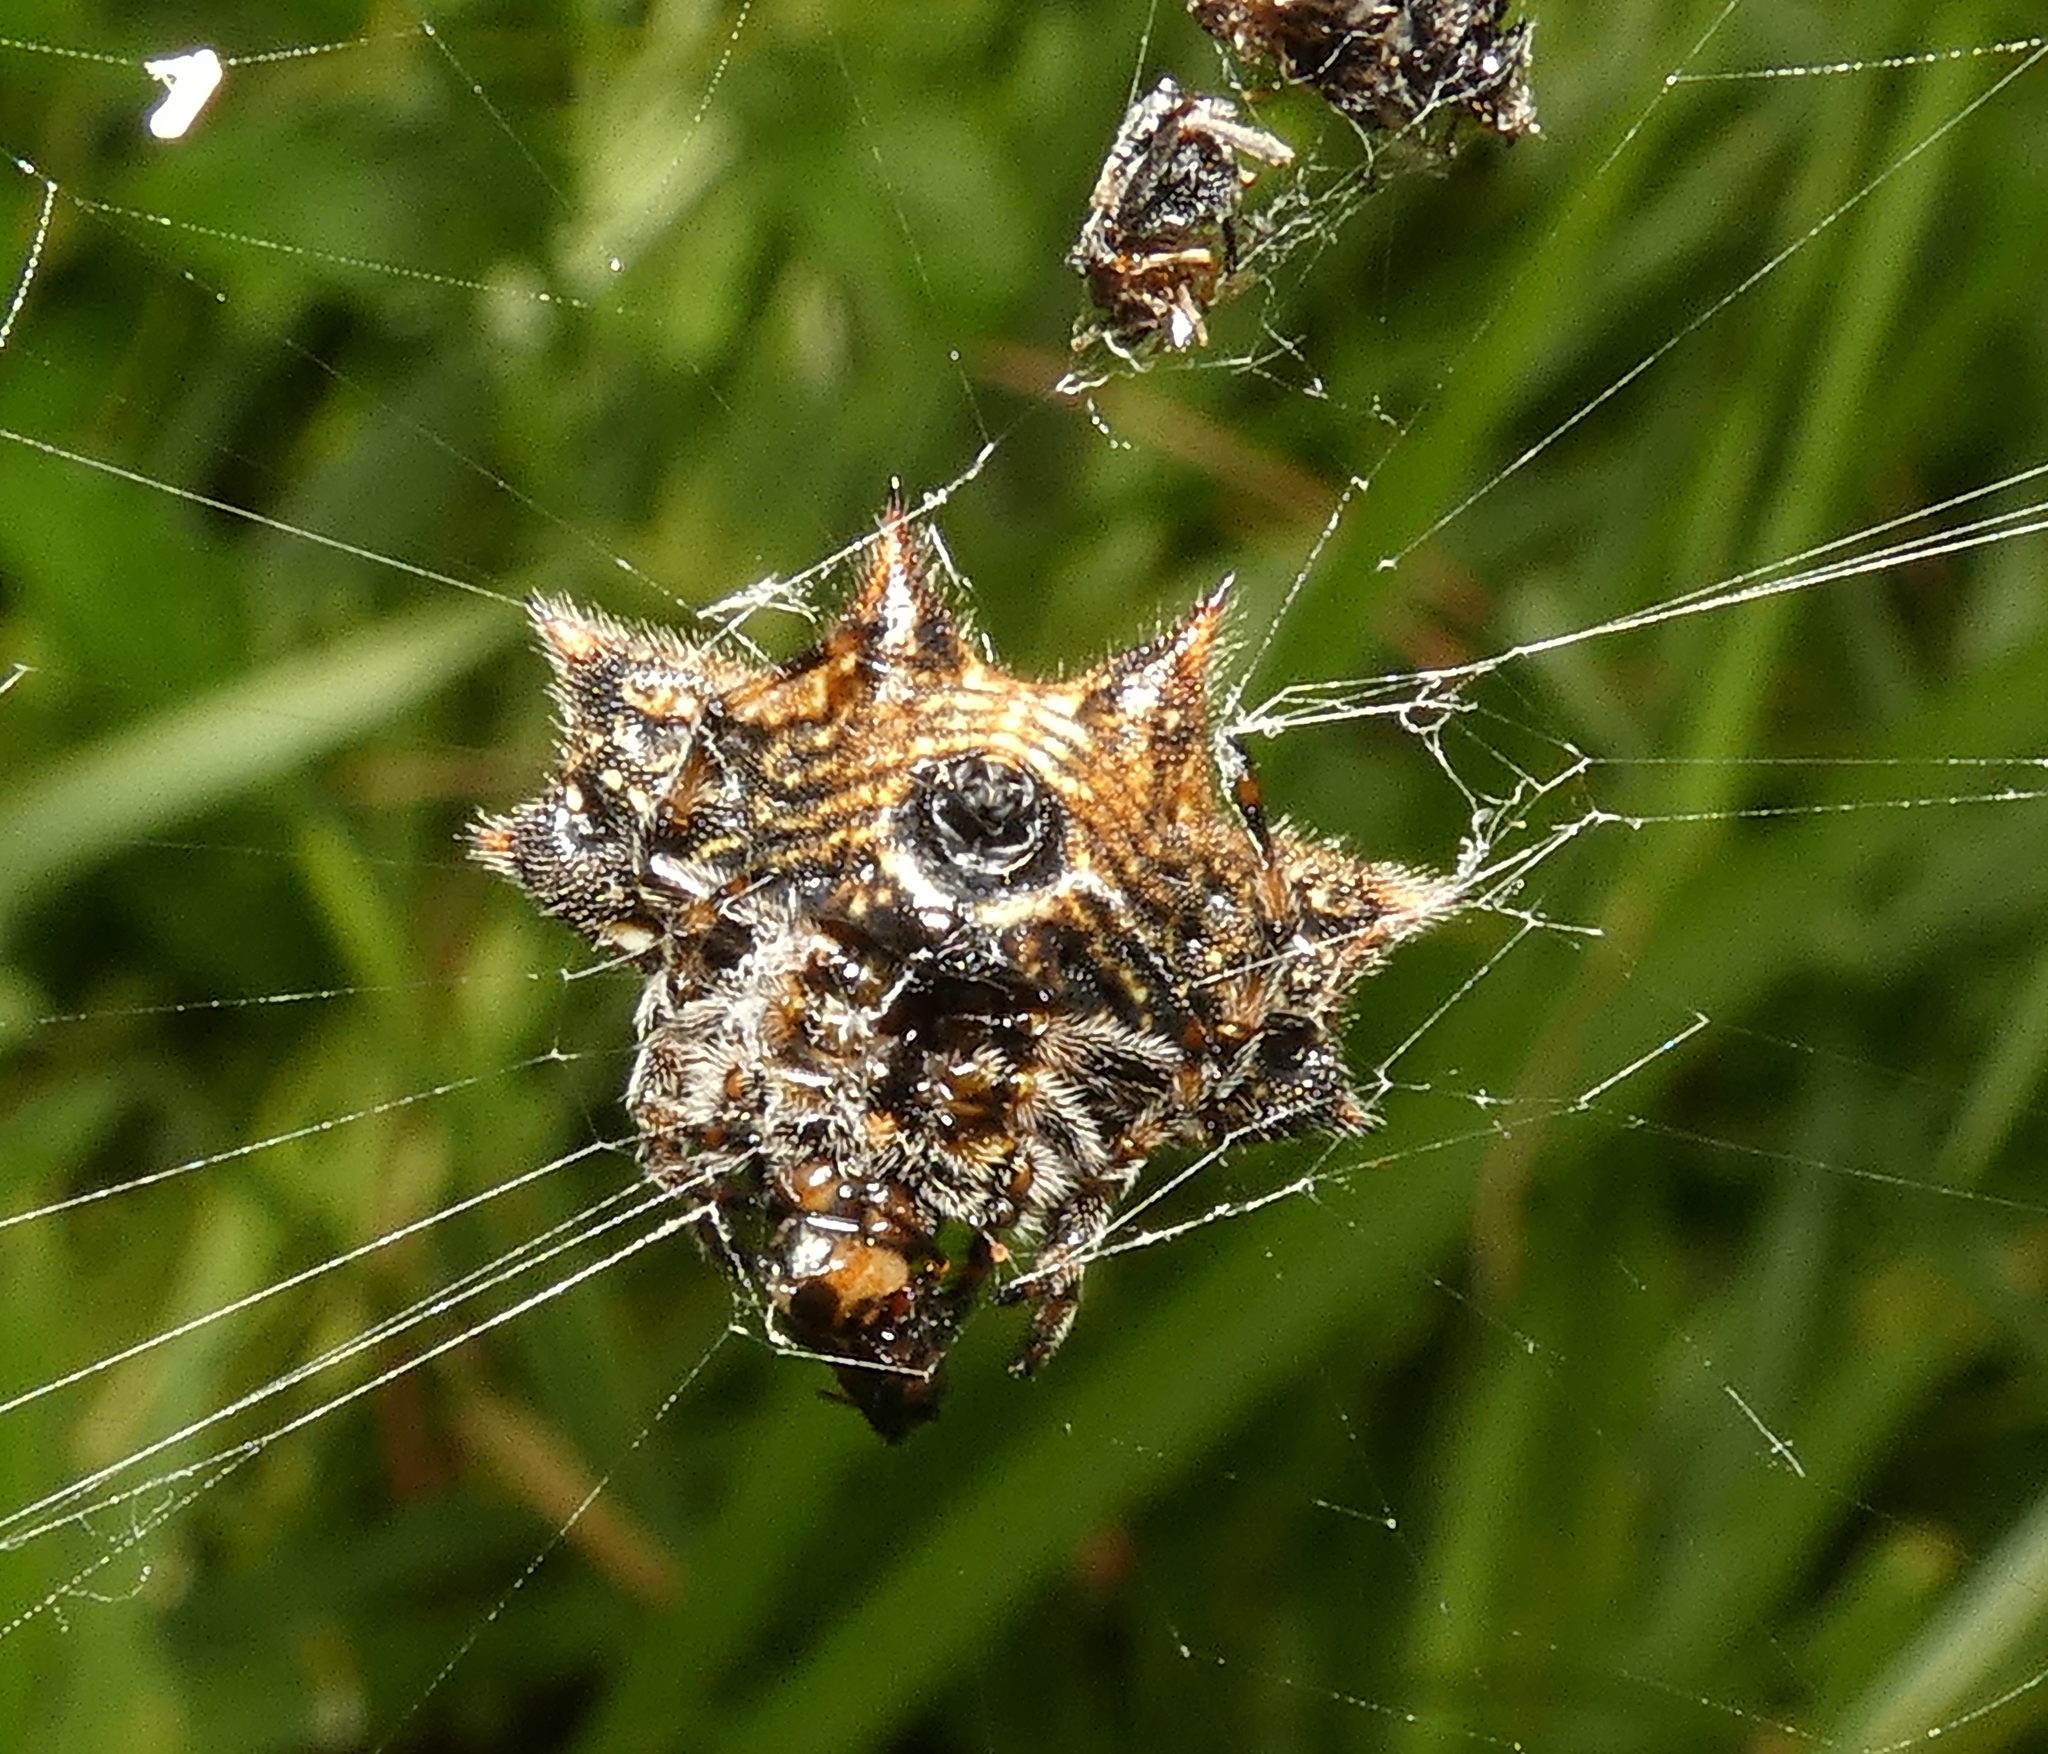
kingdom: Animalia
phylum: Arthropoda
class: Arachnida
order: Araneae
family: Araneidae
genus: Gasteracantha
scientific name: Gasteracantha cancriformis
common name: Orb weavers
